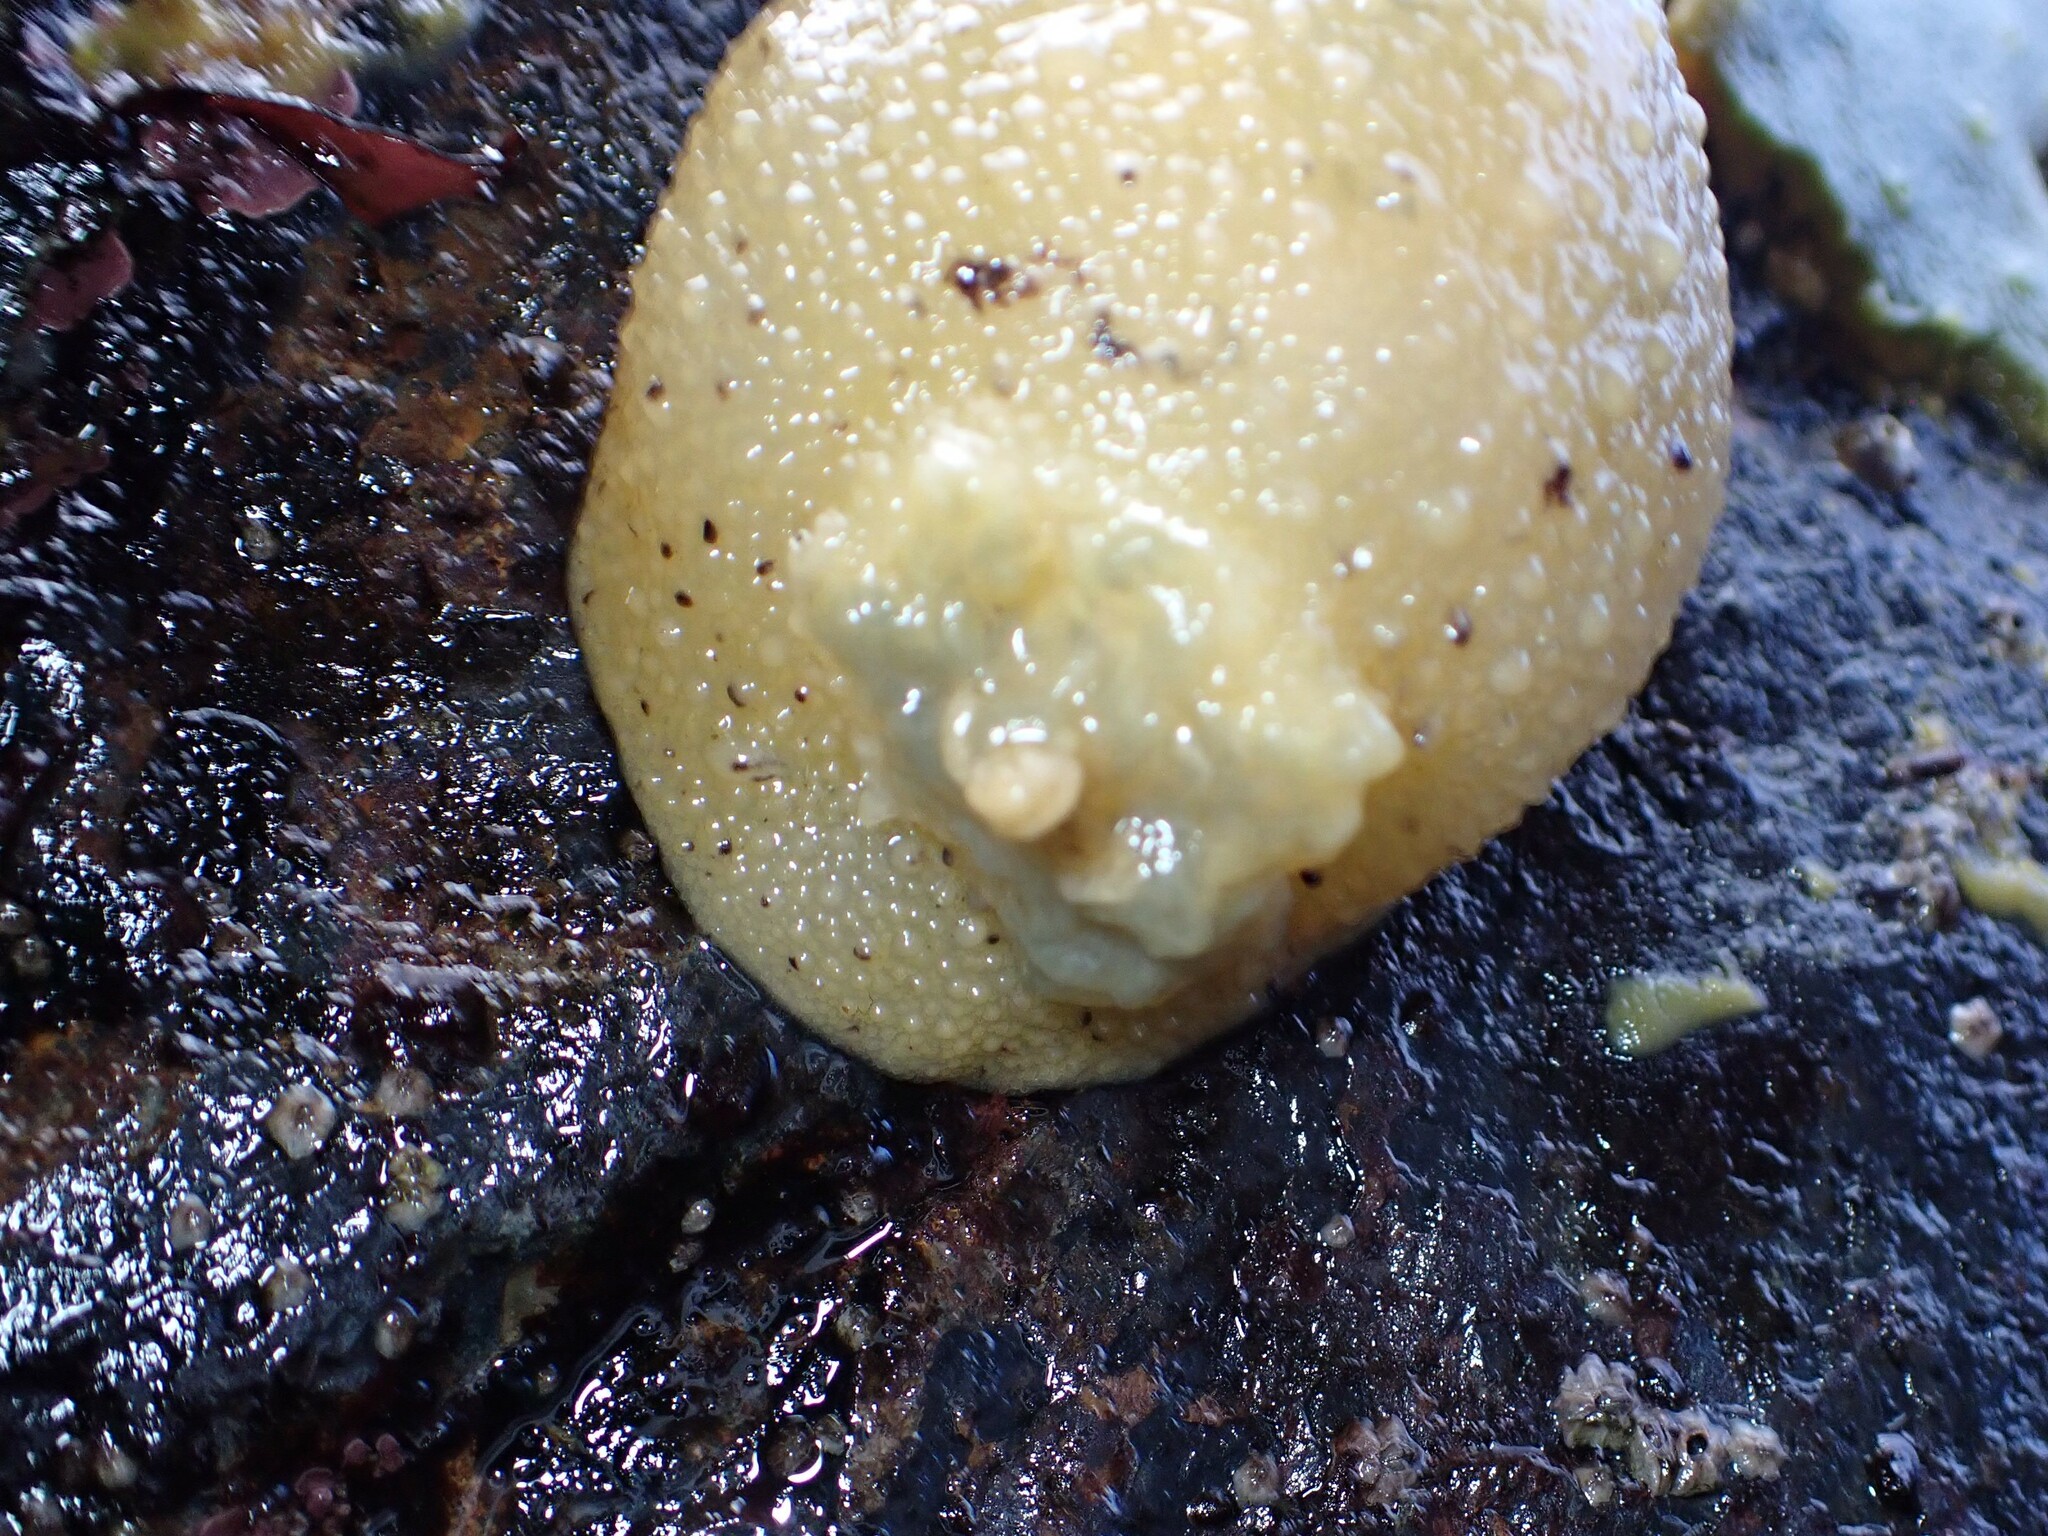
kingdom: Animalia
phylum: Mollusca
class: Gastropoda
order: Nudibranchia
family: Dorididae
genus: Doris
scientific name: Doris montereyensis
